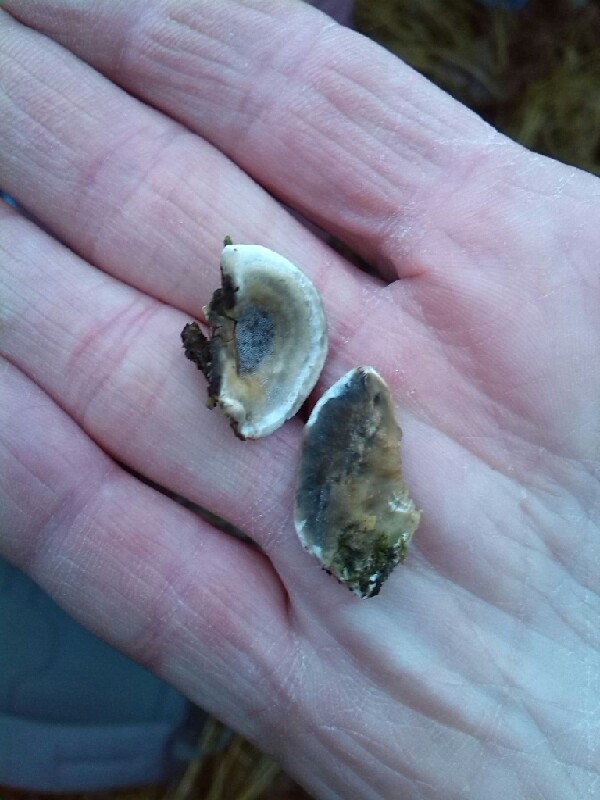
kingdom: Fungi
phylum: Basidiomycota
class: Agaricomycetes
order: Polyporales
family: Phanerochaetaceae
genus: Bjerkandera
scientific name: Bjerkandera adusta
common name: Smoky bracket
